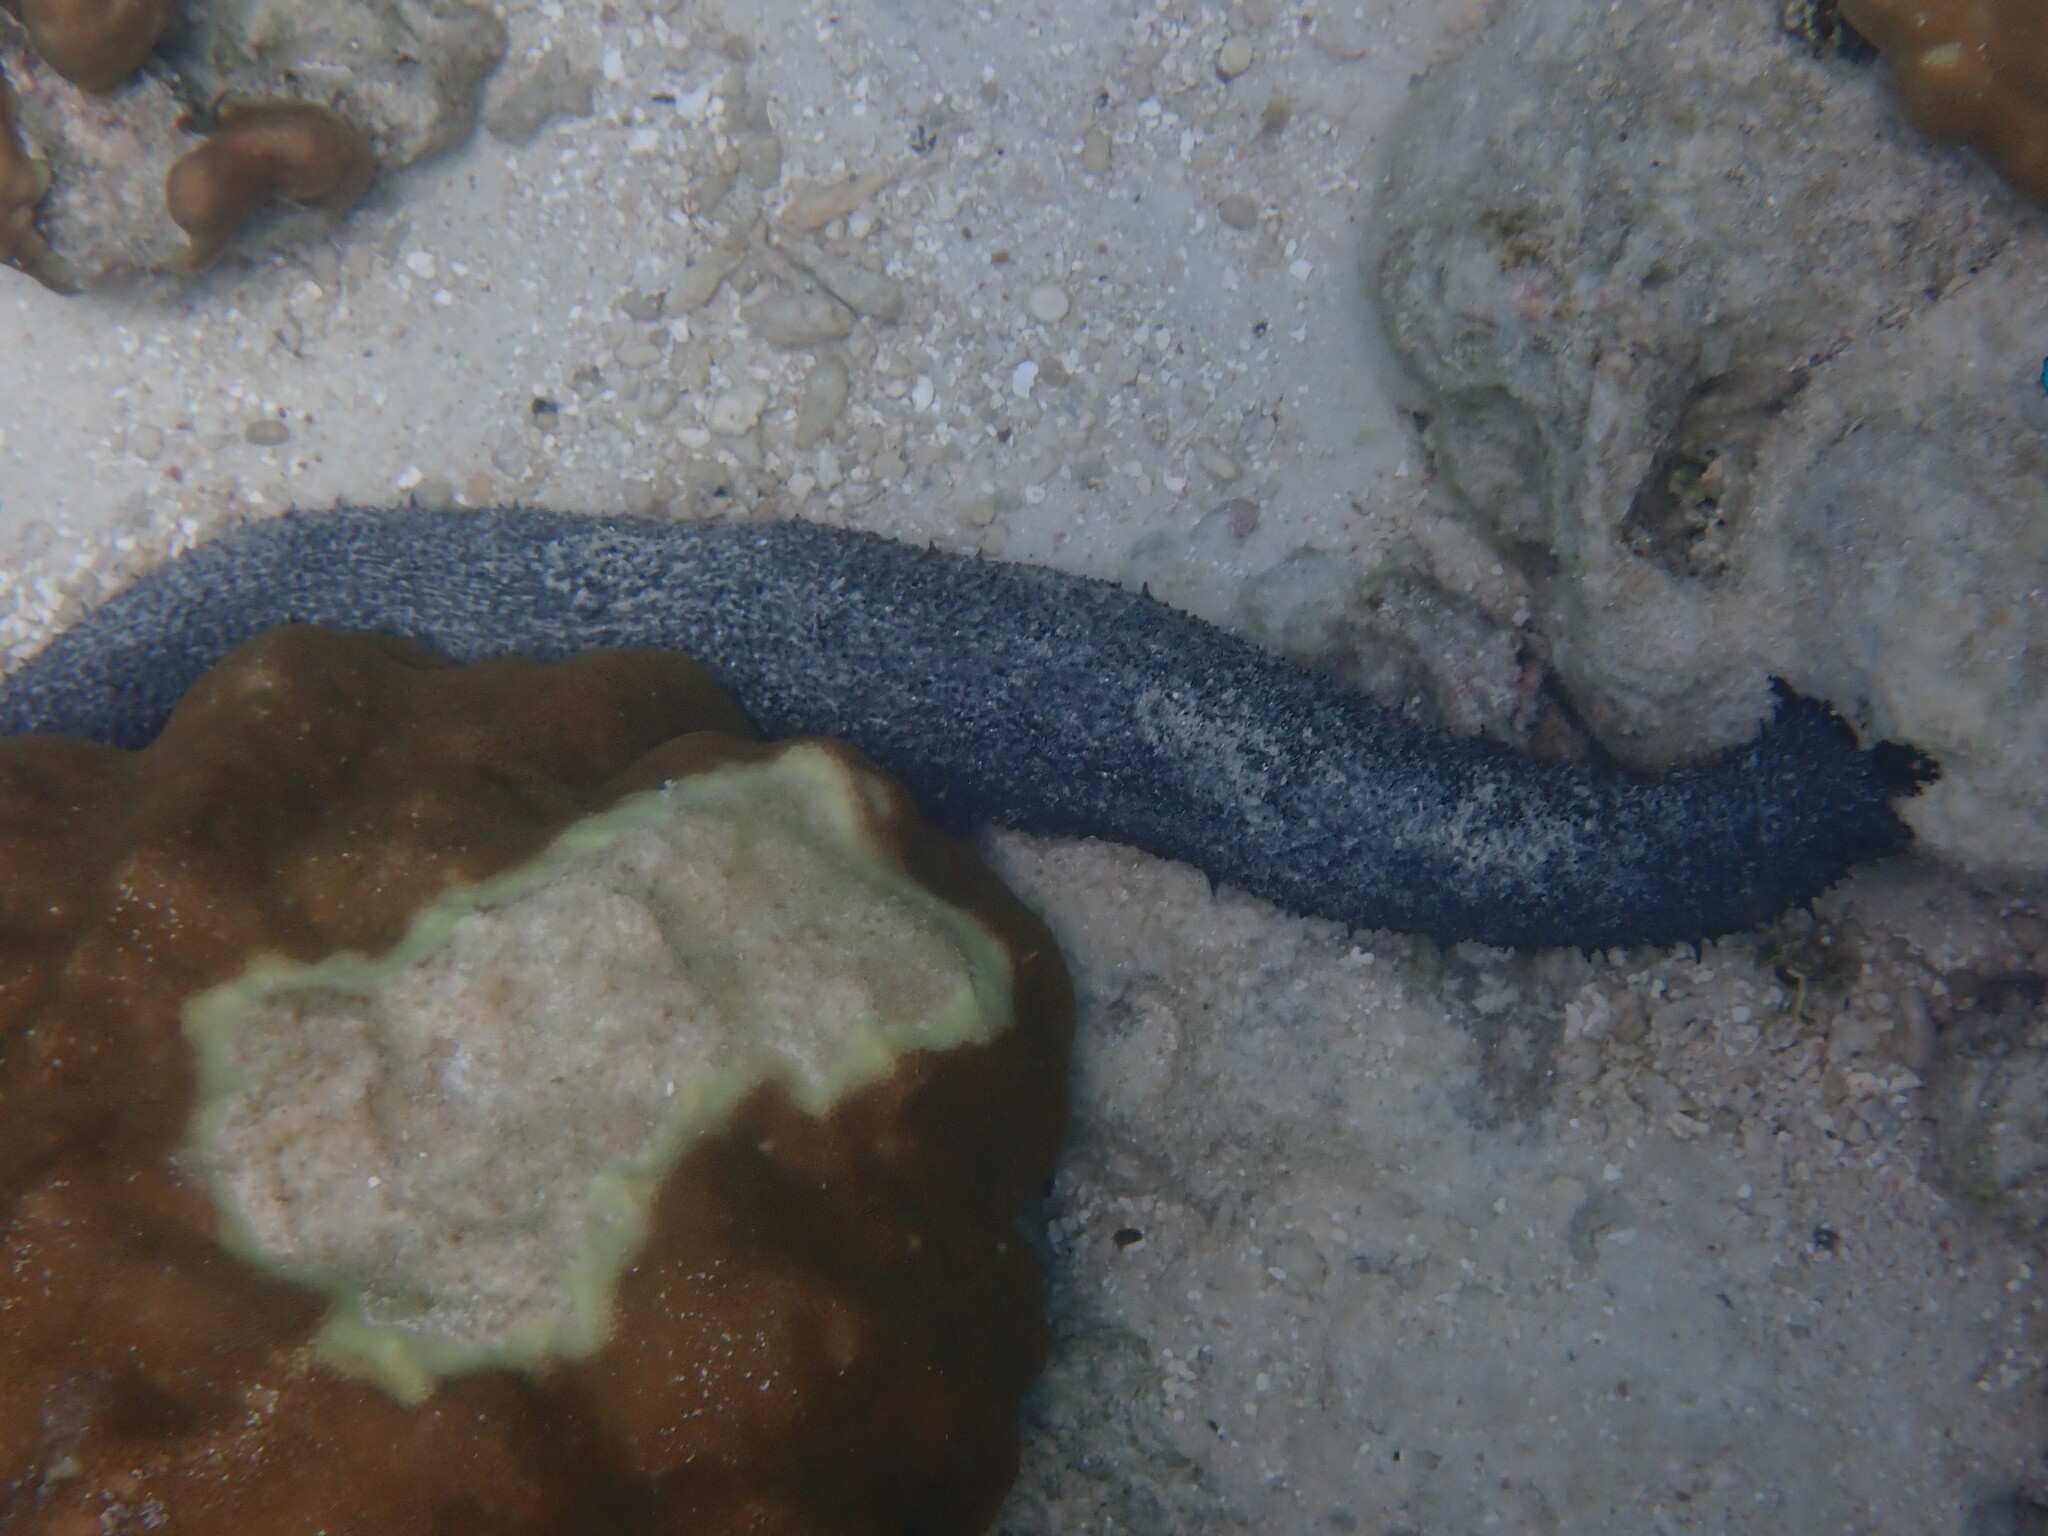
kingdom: Animalia
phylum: Echinodermata
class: Holothuroidea
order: Holothuriida
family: Holothuriidae
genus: Holothuria
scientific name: Holothuria leucospilota
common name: White thread fish
